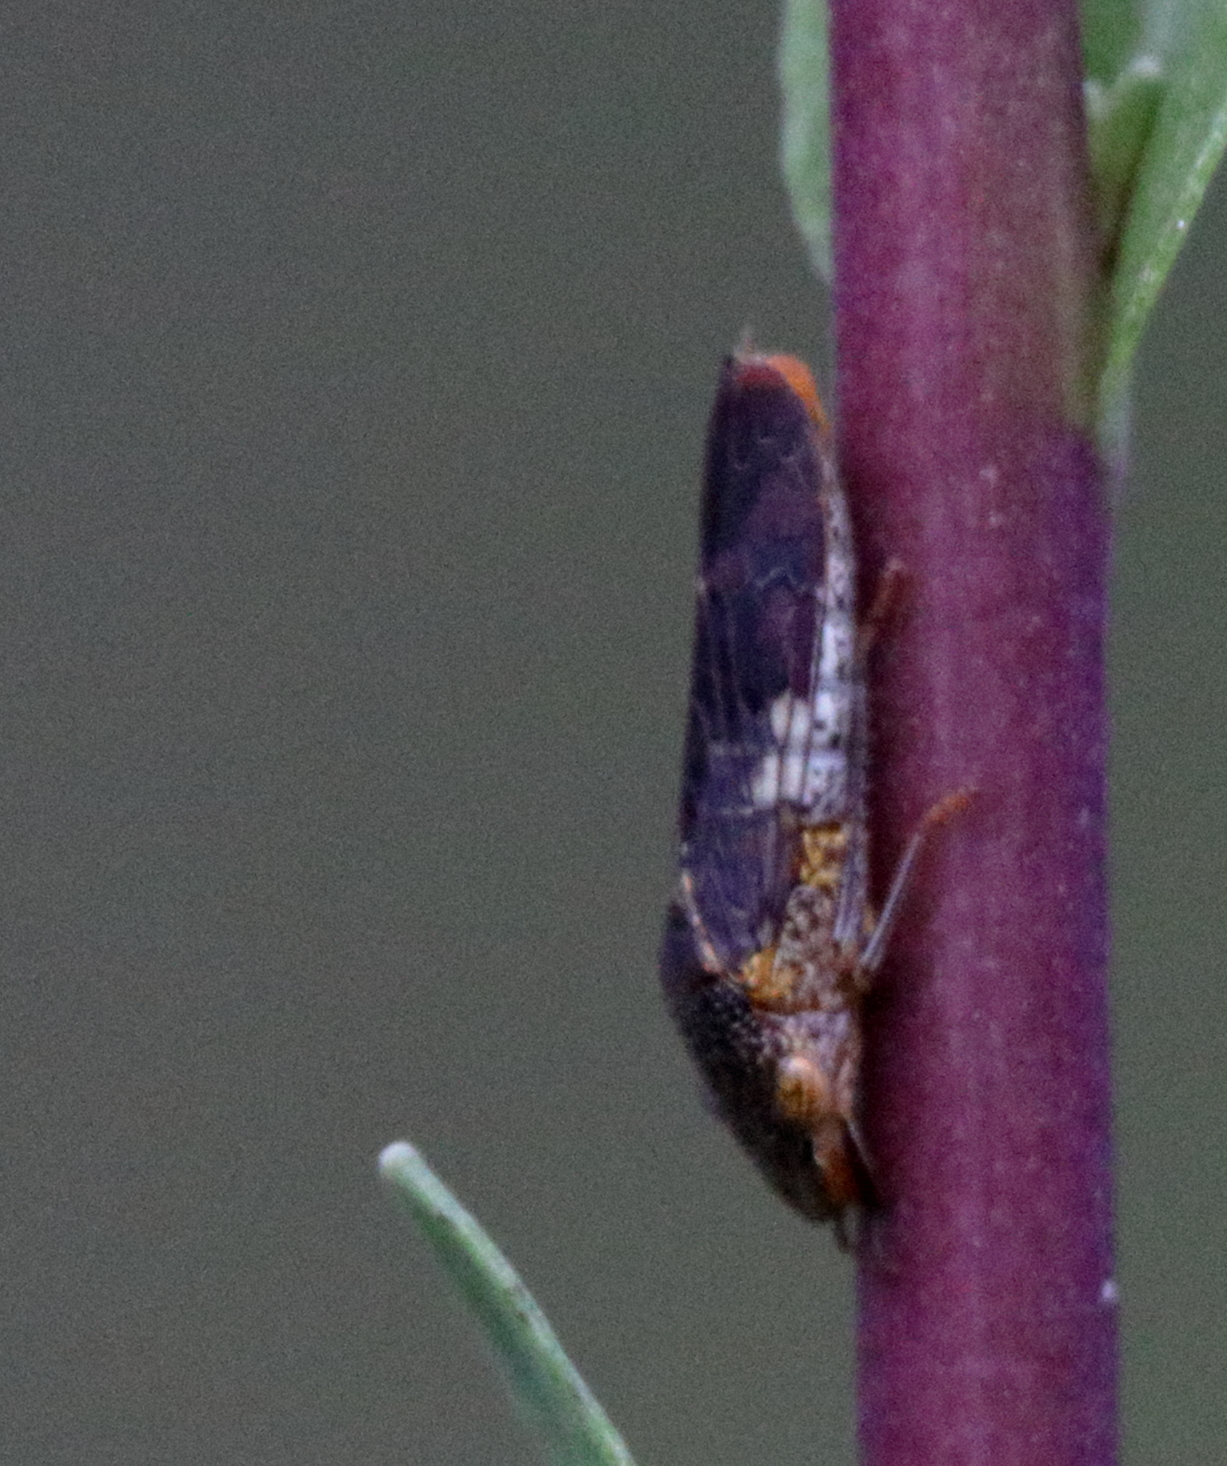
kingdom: Animalia
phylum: Arthropoda
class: Insecta
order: Hemiptera
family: Cicadellidae
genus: Homalodisca
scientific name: Homalodisca vitripennis
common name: Glassy-winged sharpshooter
